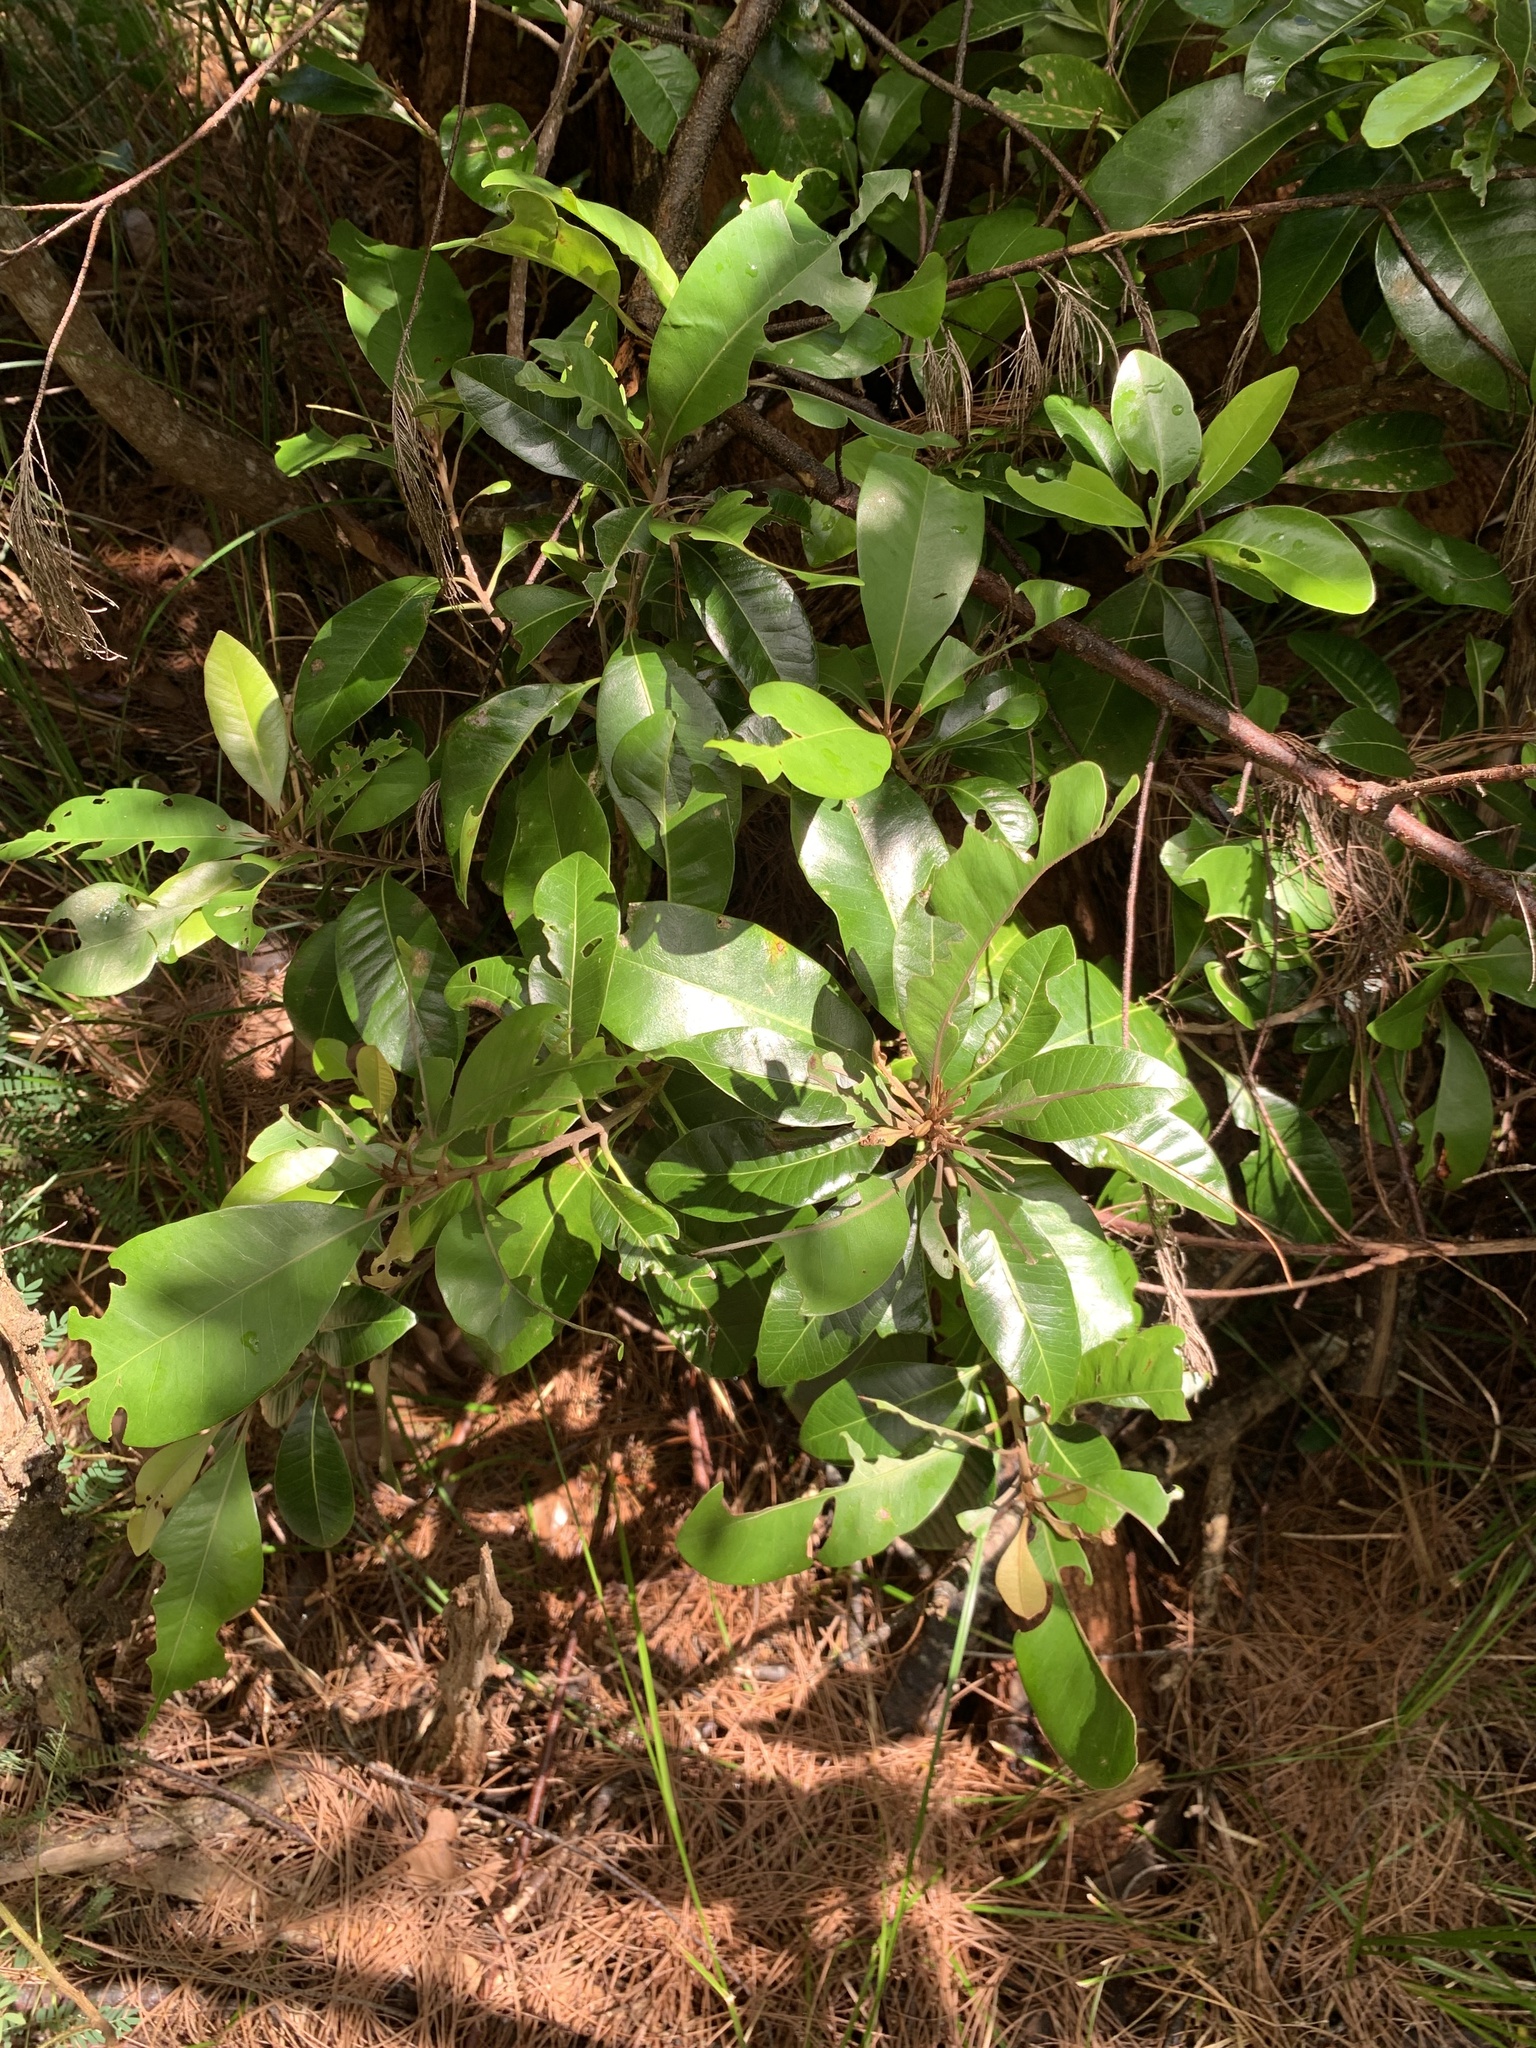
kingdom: Plantae
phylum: Tracheophyta
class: Magnoliopsida
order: Ericales
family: Sapotaceae
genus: Planchonella
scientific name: Planchonella obovata
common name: Black-ash
